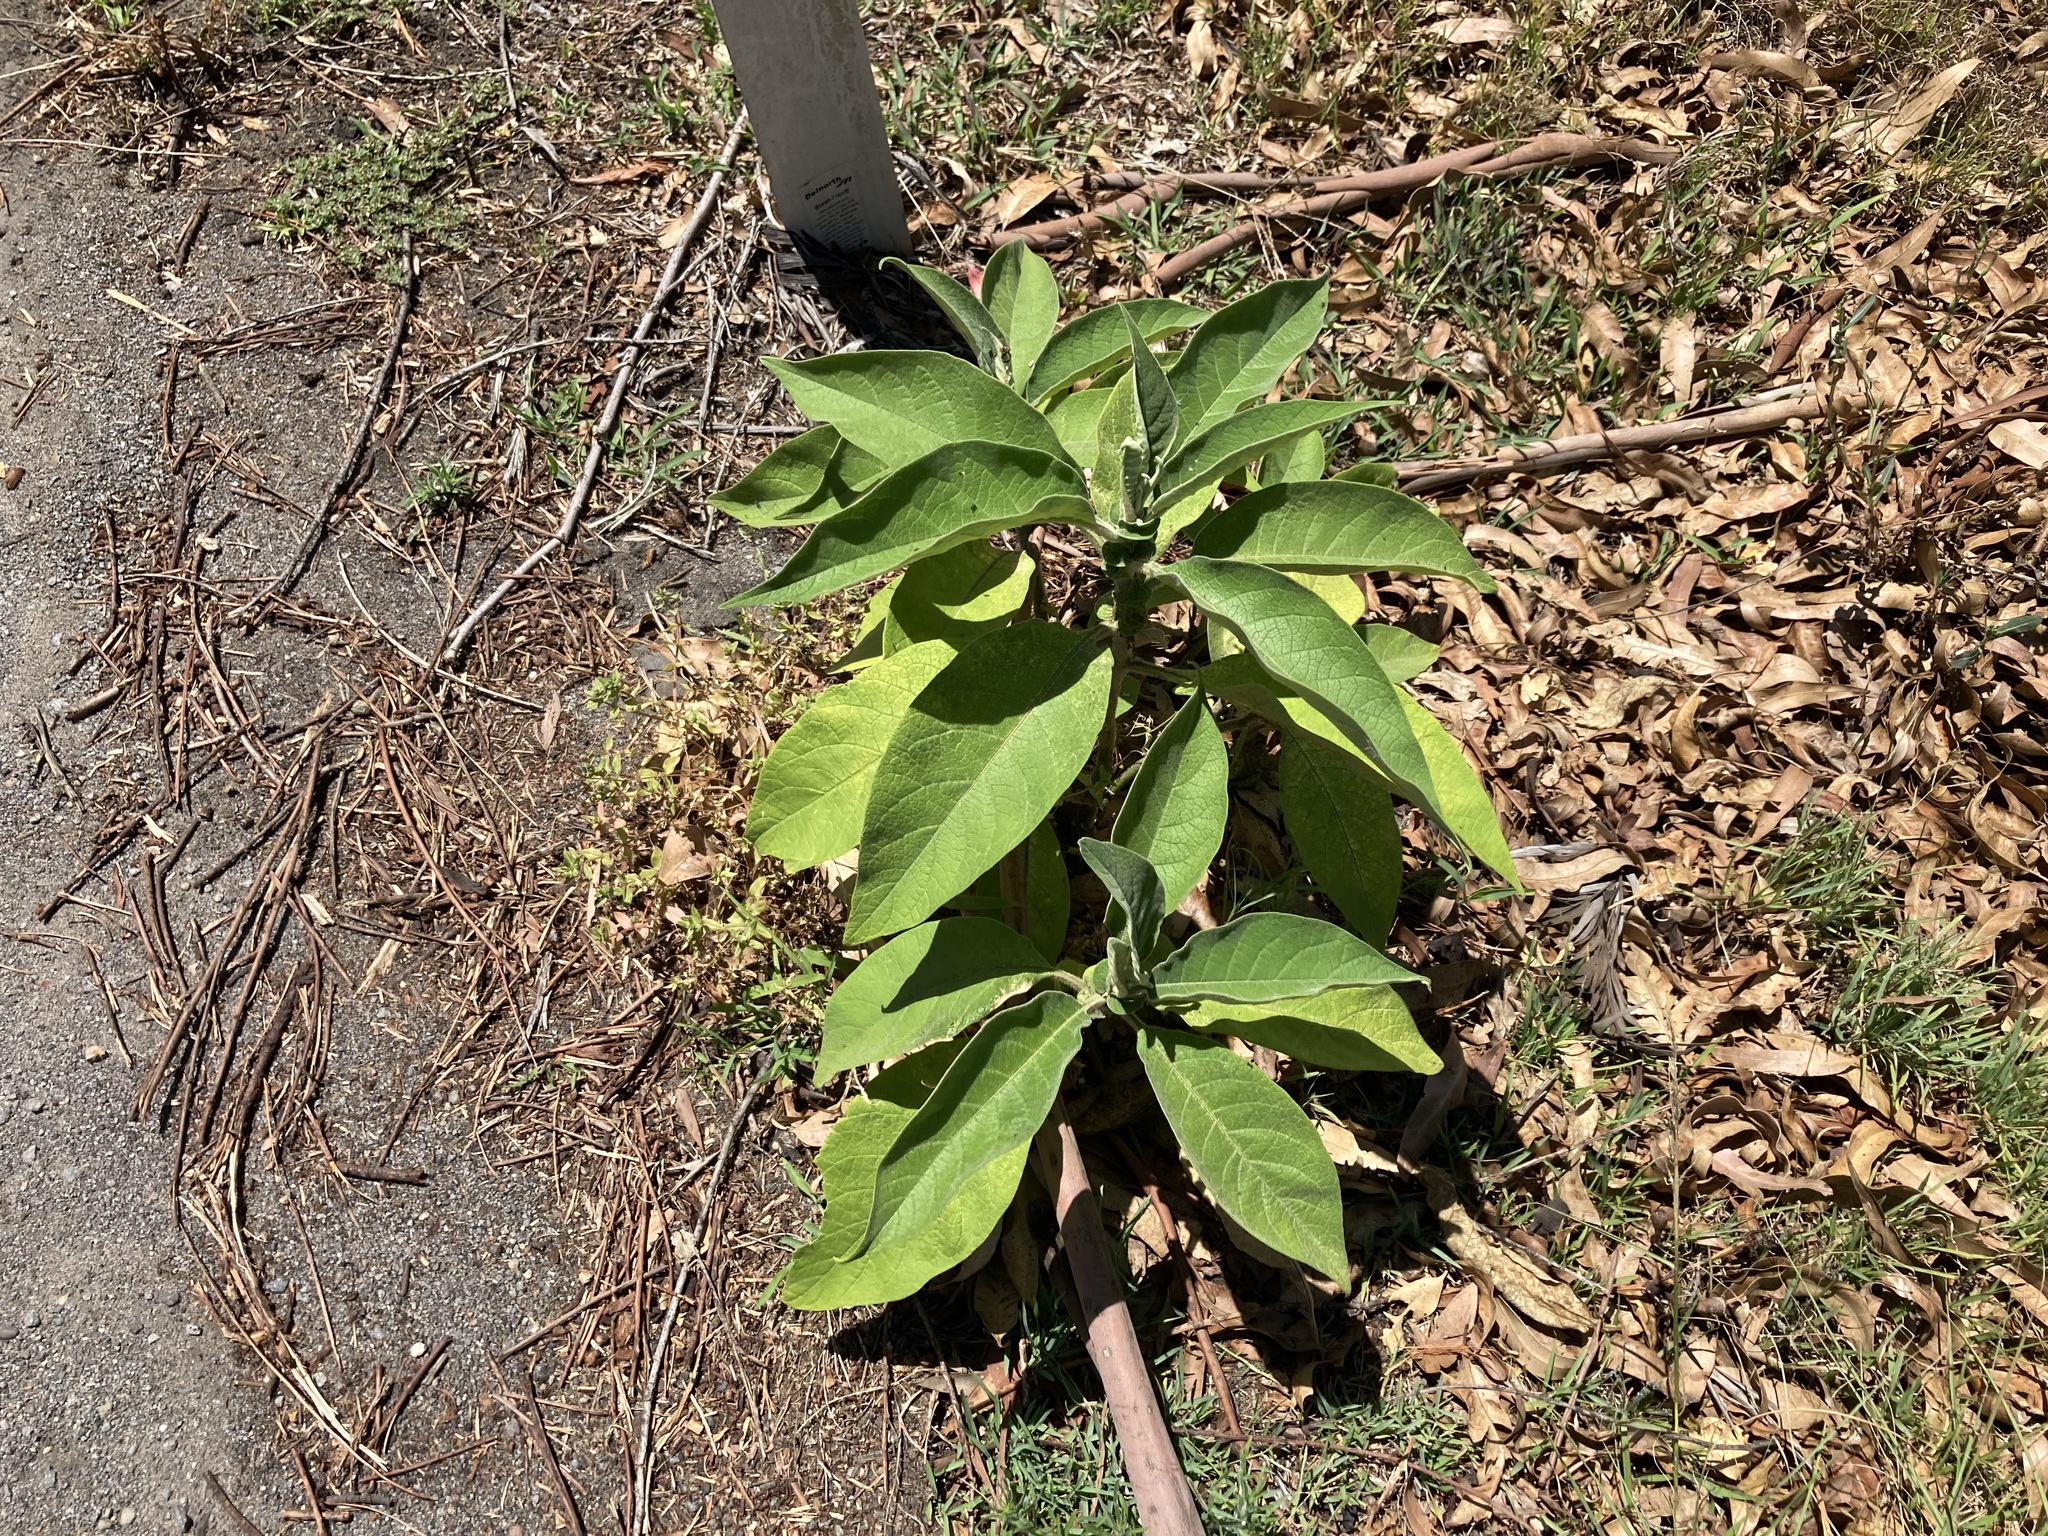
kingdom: Plantae
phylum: Tracheophyta
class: Magnoliopsida
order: Solanales
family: Solanaceae
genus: Solanum
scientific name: Solanum mauritianum
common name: Earleaf nightshade
